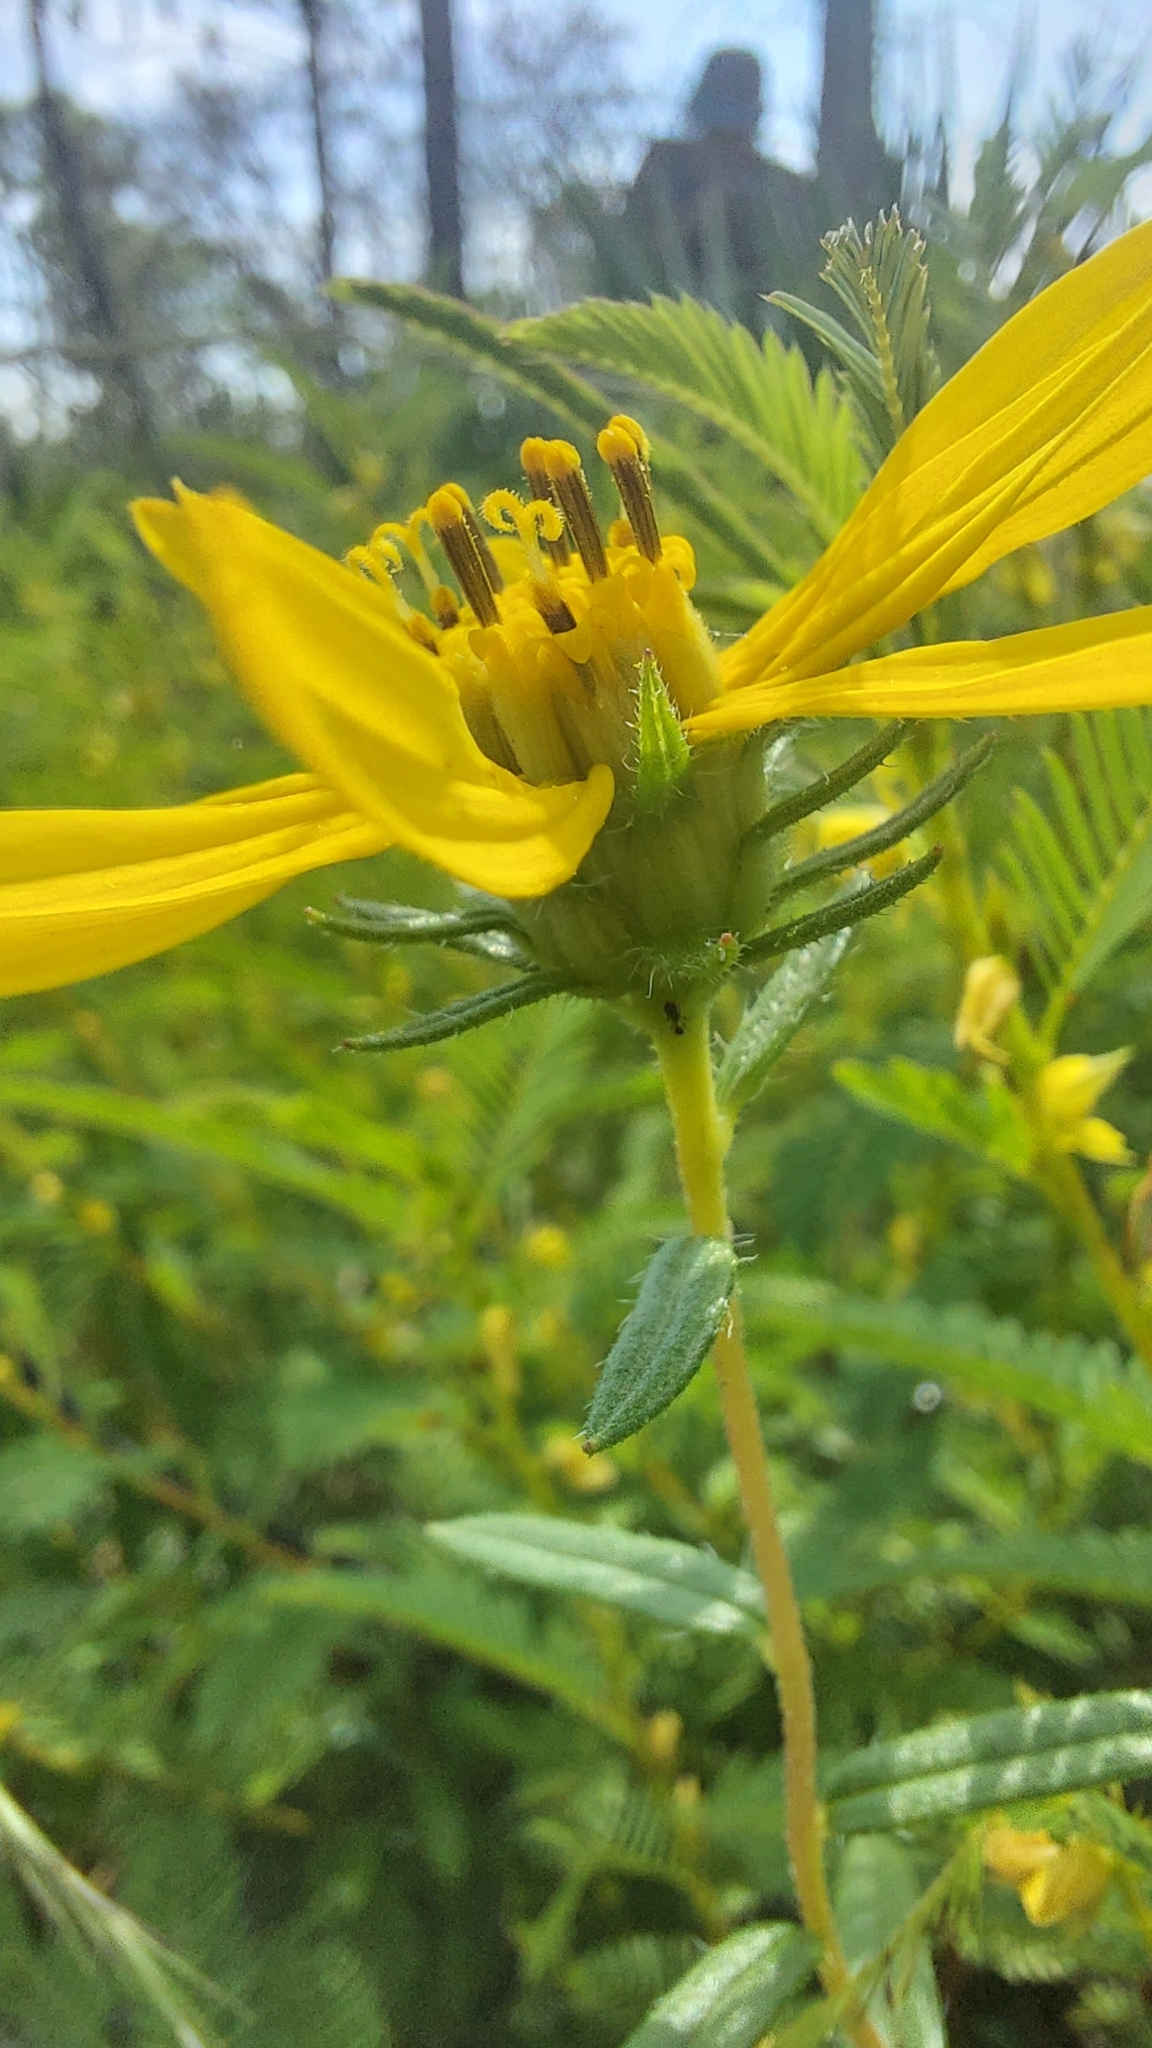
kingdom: Plantae
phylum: Tracheophyta
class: Magnoliopsida
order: Asterales
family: Asteraceae
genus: Phoebanthus
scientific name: Phoebanthus grandiflora
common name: Florida false sunflower
